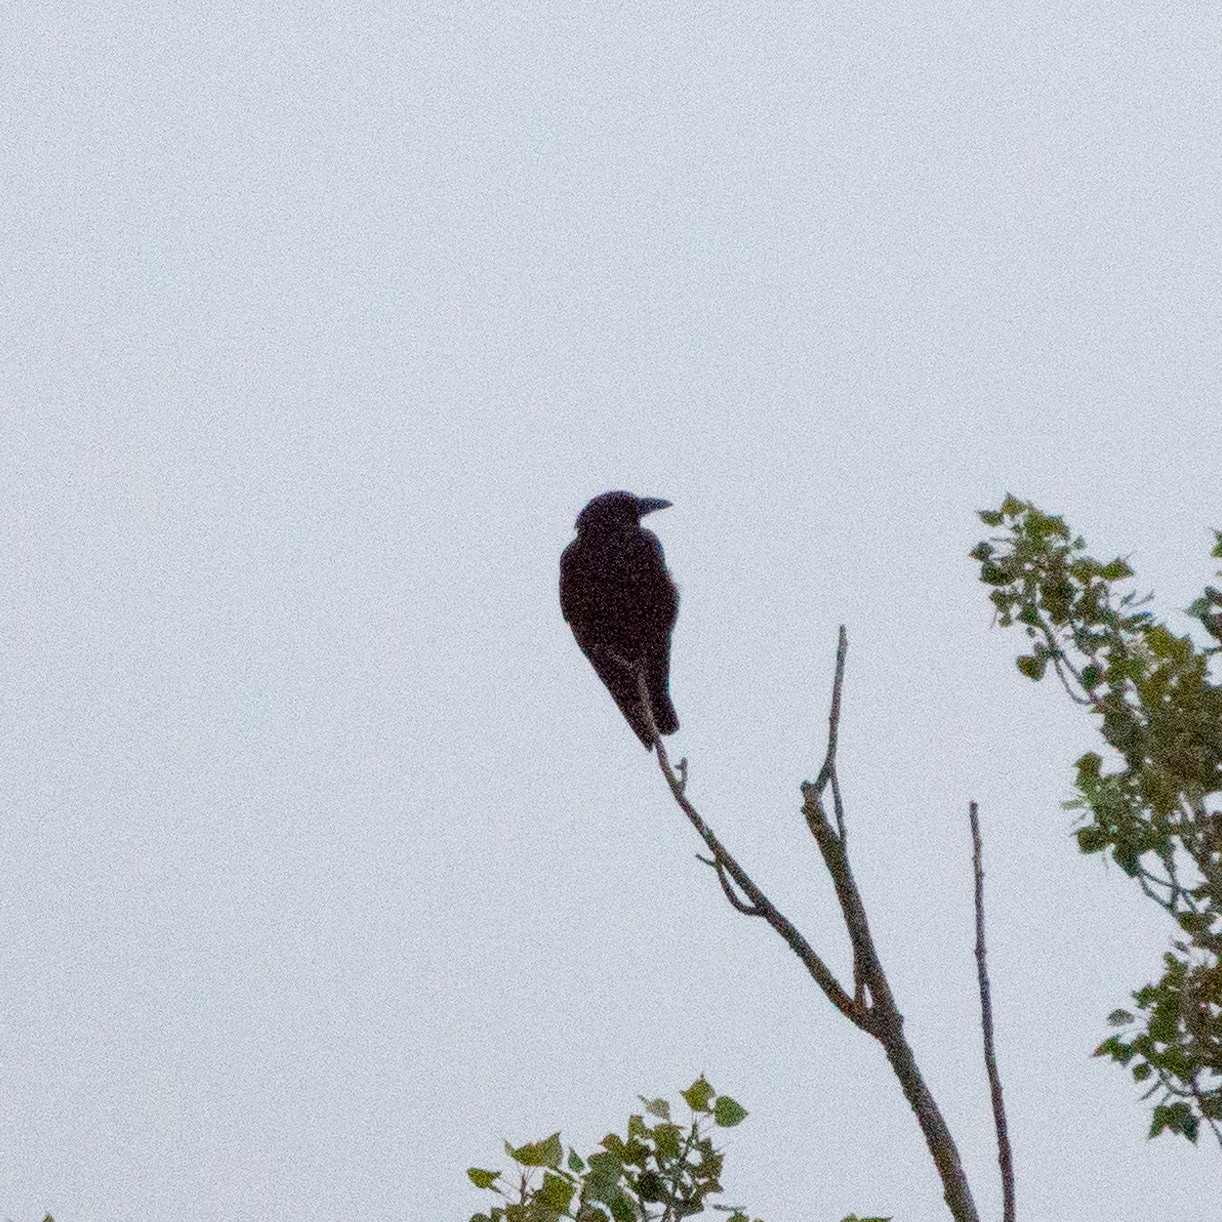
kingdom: Animalia
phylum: Chordata
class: Aves
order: Passeriformes
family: Corvidae
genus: Corvus
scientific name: Corvus corone
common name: Carrion crow
